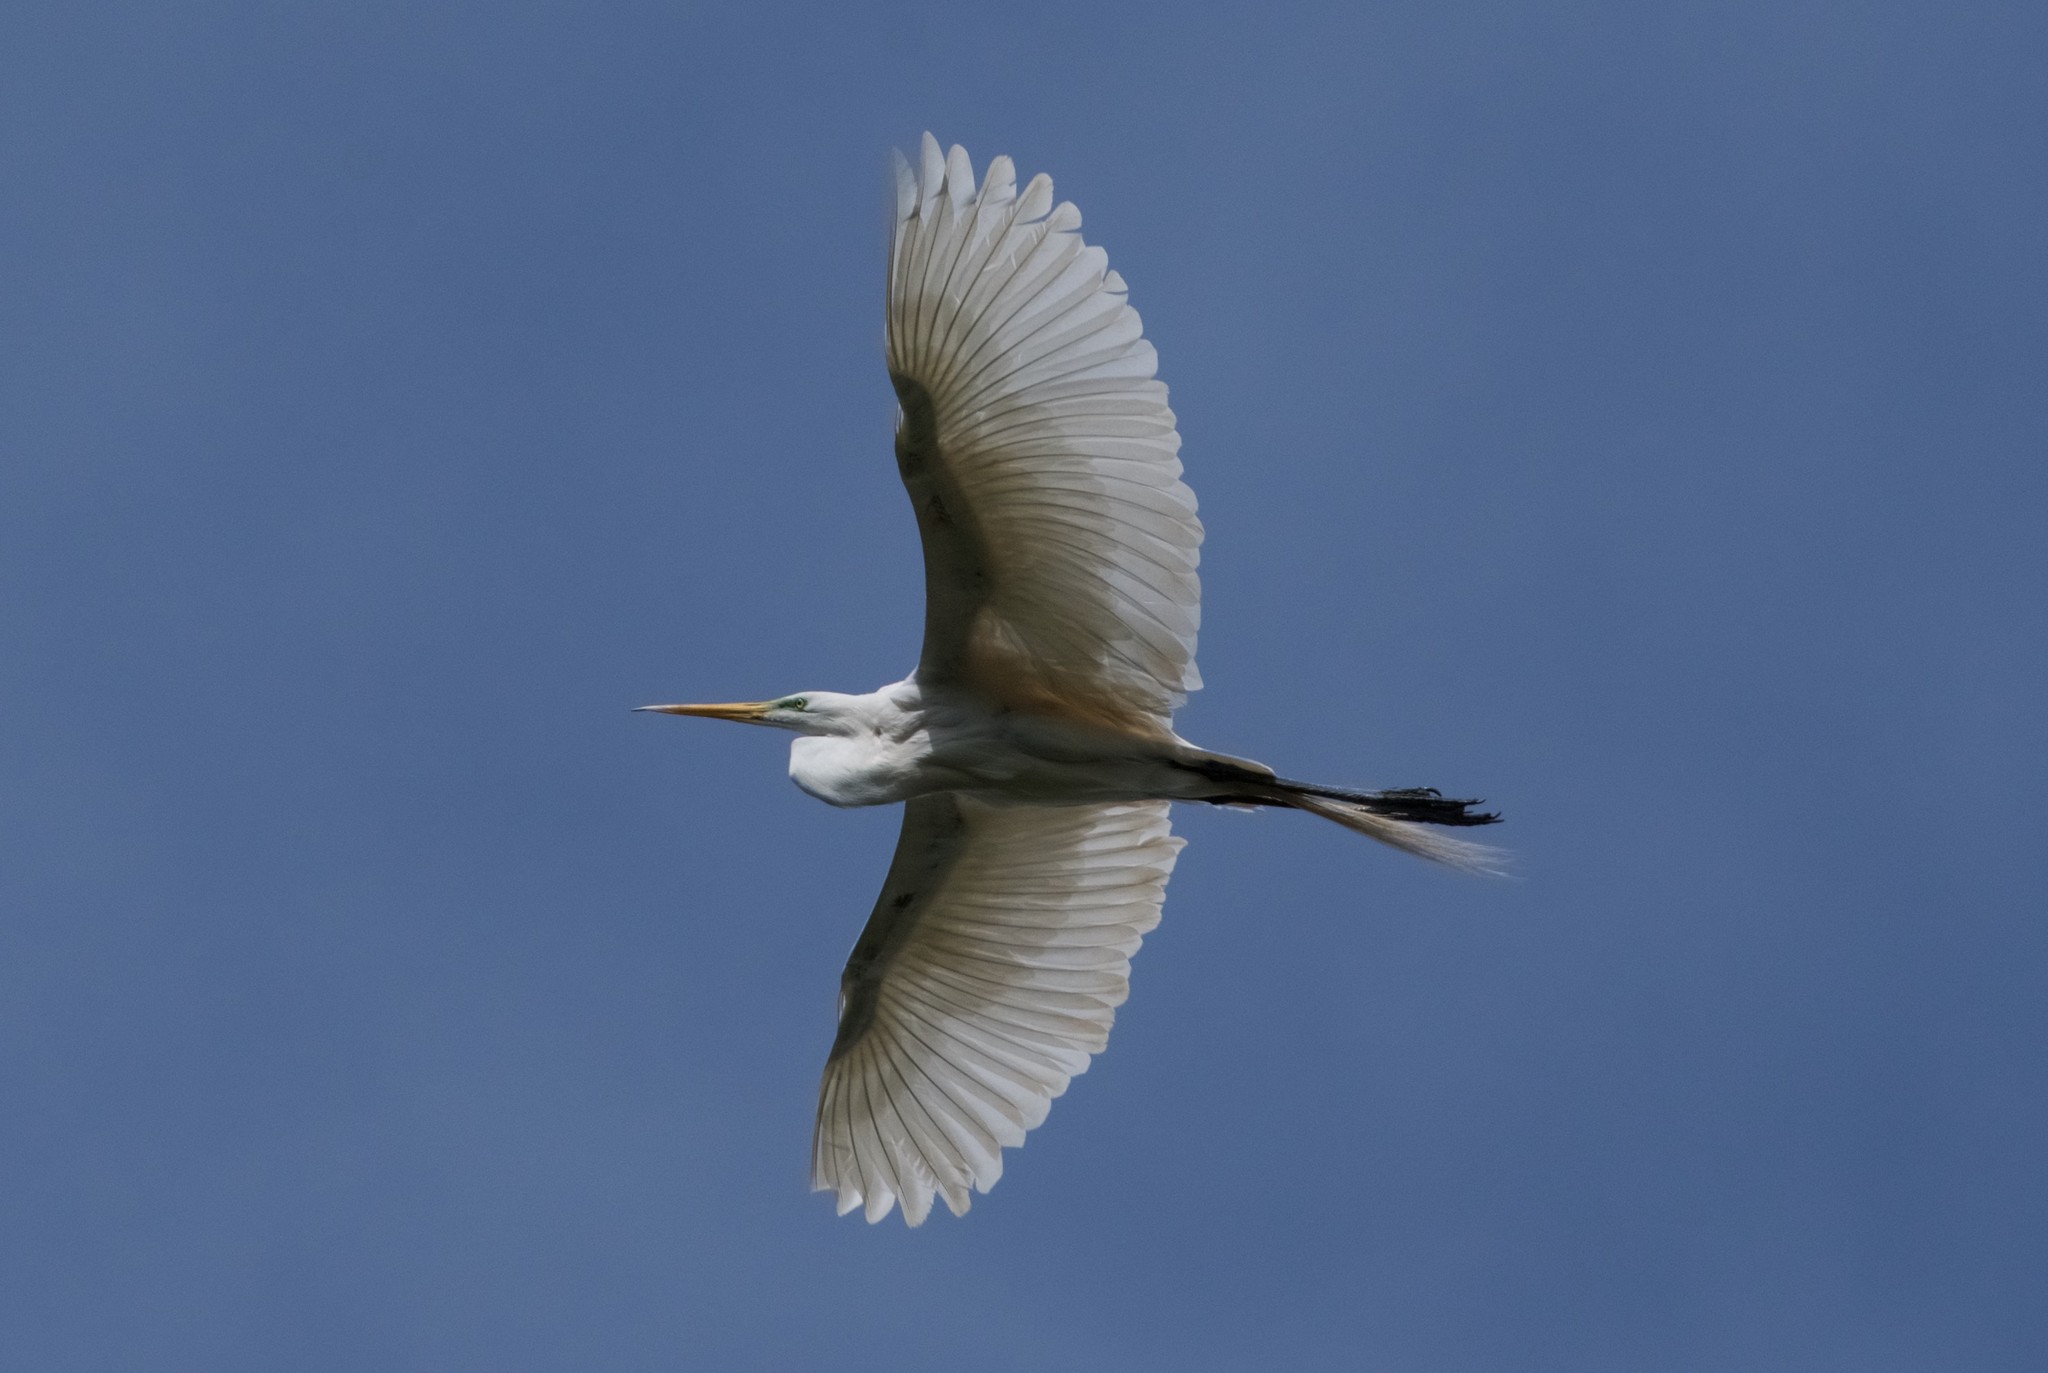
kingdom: Animalia
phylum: Chordata
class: Aves
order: Pelecaniformes
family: Ardeidae
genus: Ardea
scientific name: Ardea alba
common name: Great egret
